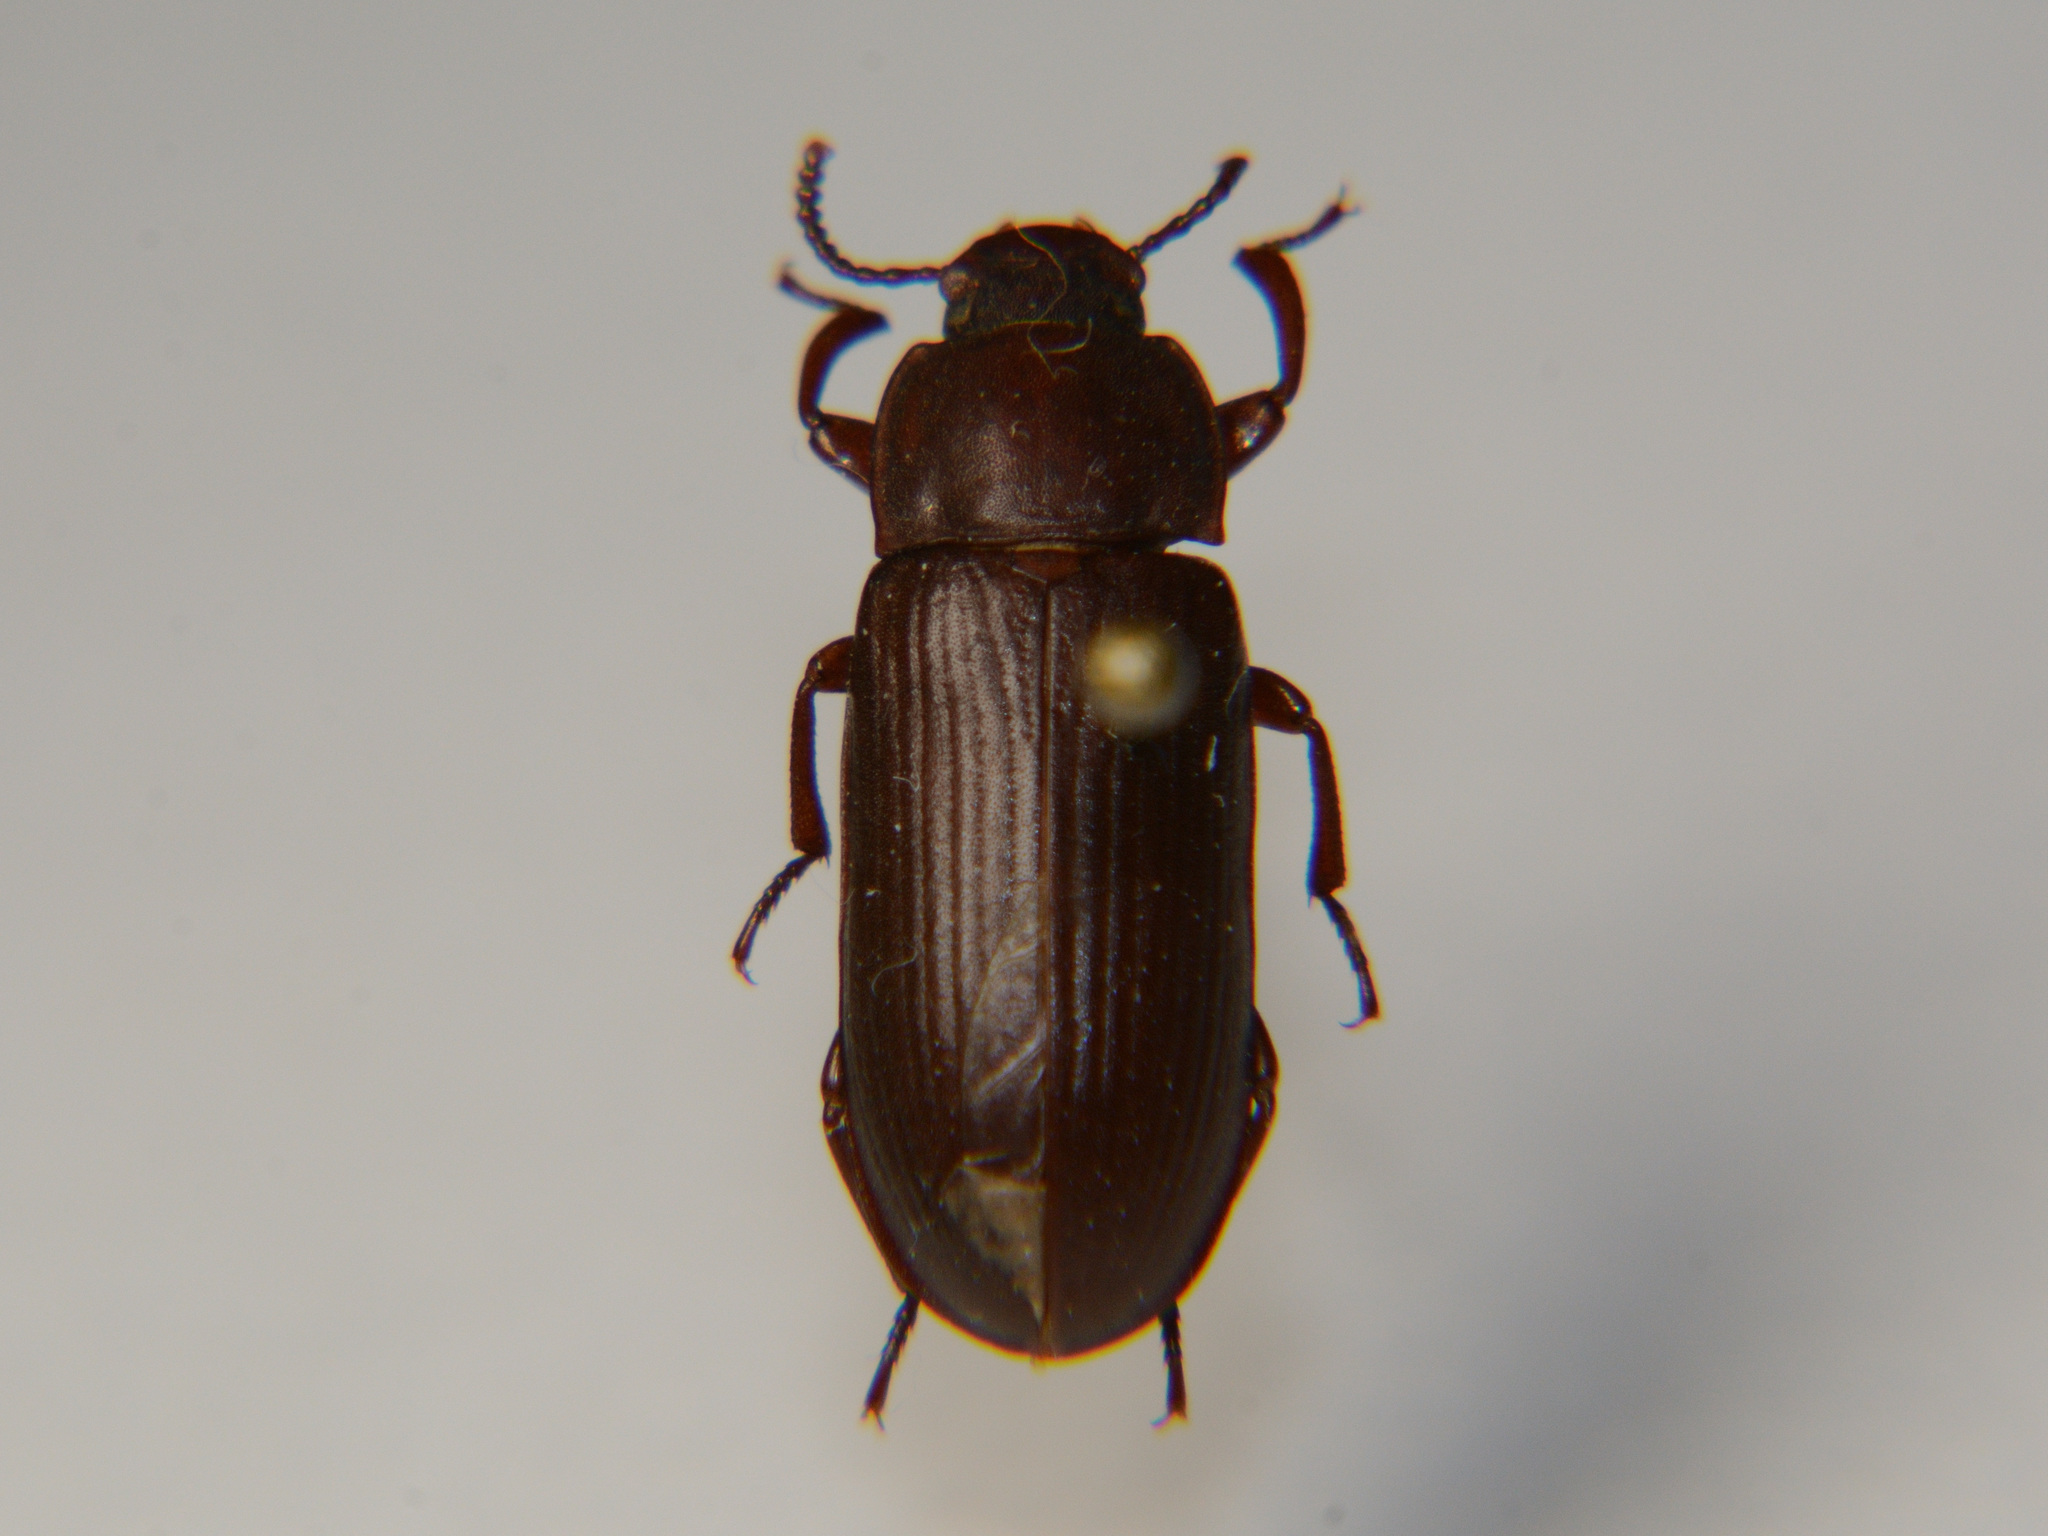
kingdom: Animalia
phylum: Arthropoda
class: Insecta
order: Coleoptera
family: Tenebrionidae
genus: Tenebrio
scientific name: Tenebrio molitor
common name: Hardback beetle
